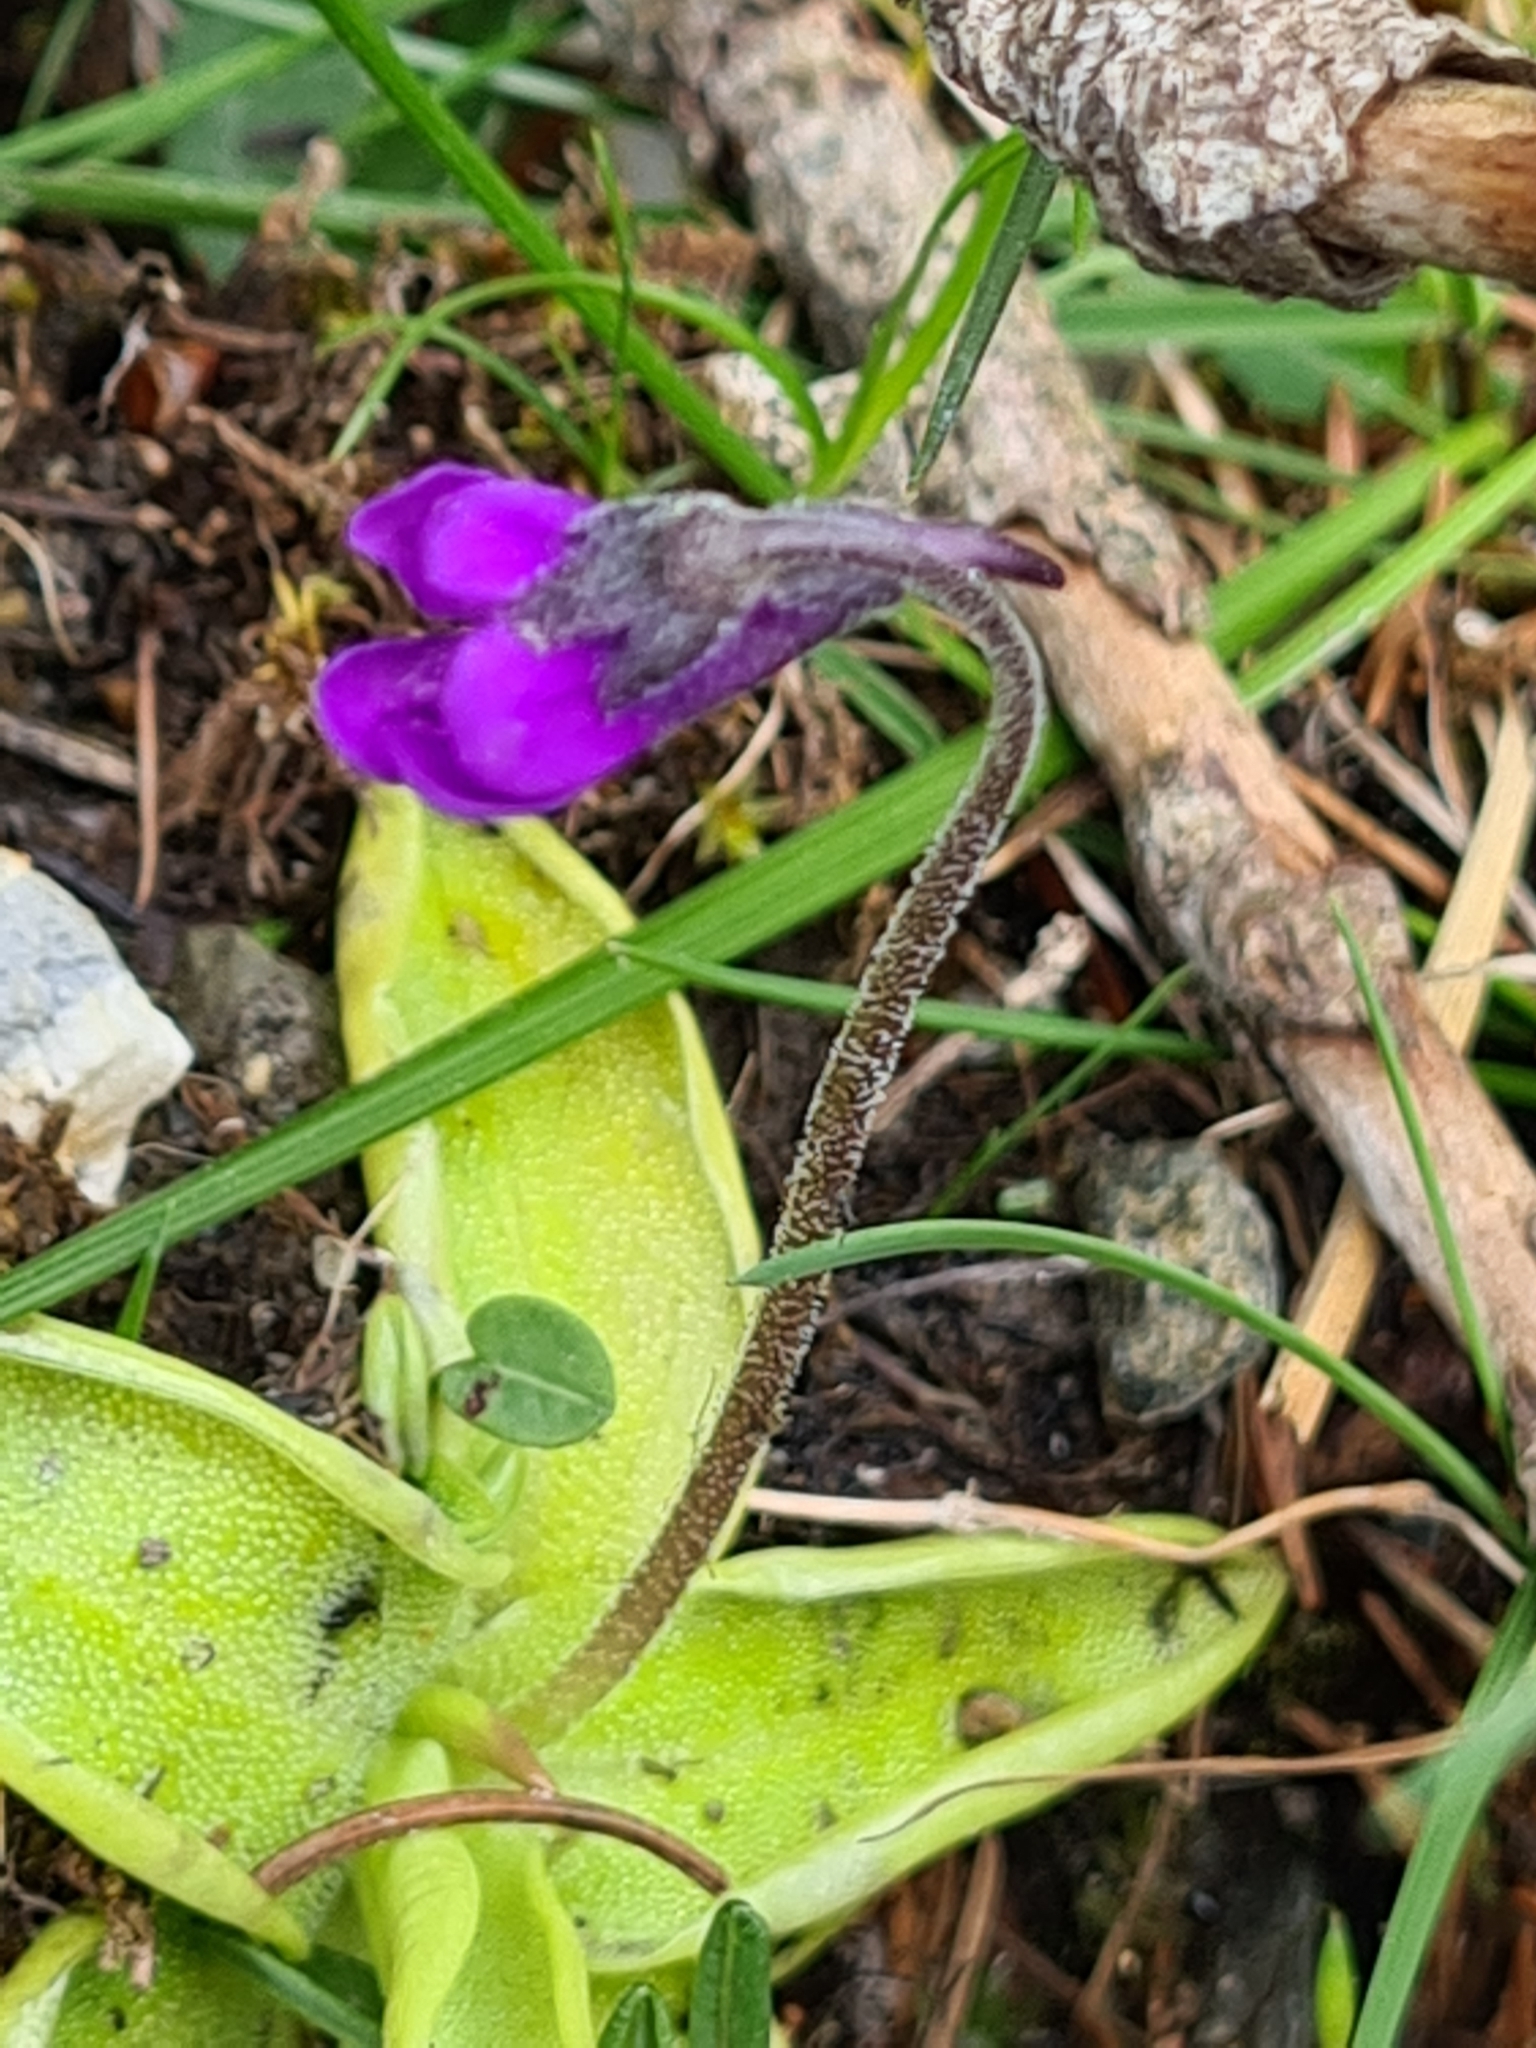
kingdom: Plantae
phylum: Tracheophyta
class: Magnoliopsida
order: Lamiales
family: Lentibulariaceae
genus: Pinguicula
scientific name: Pinguicula vulgaris
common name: Common butterwort
